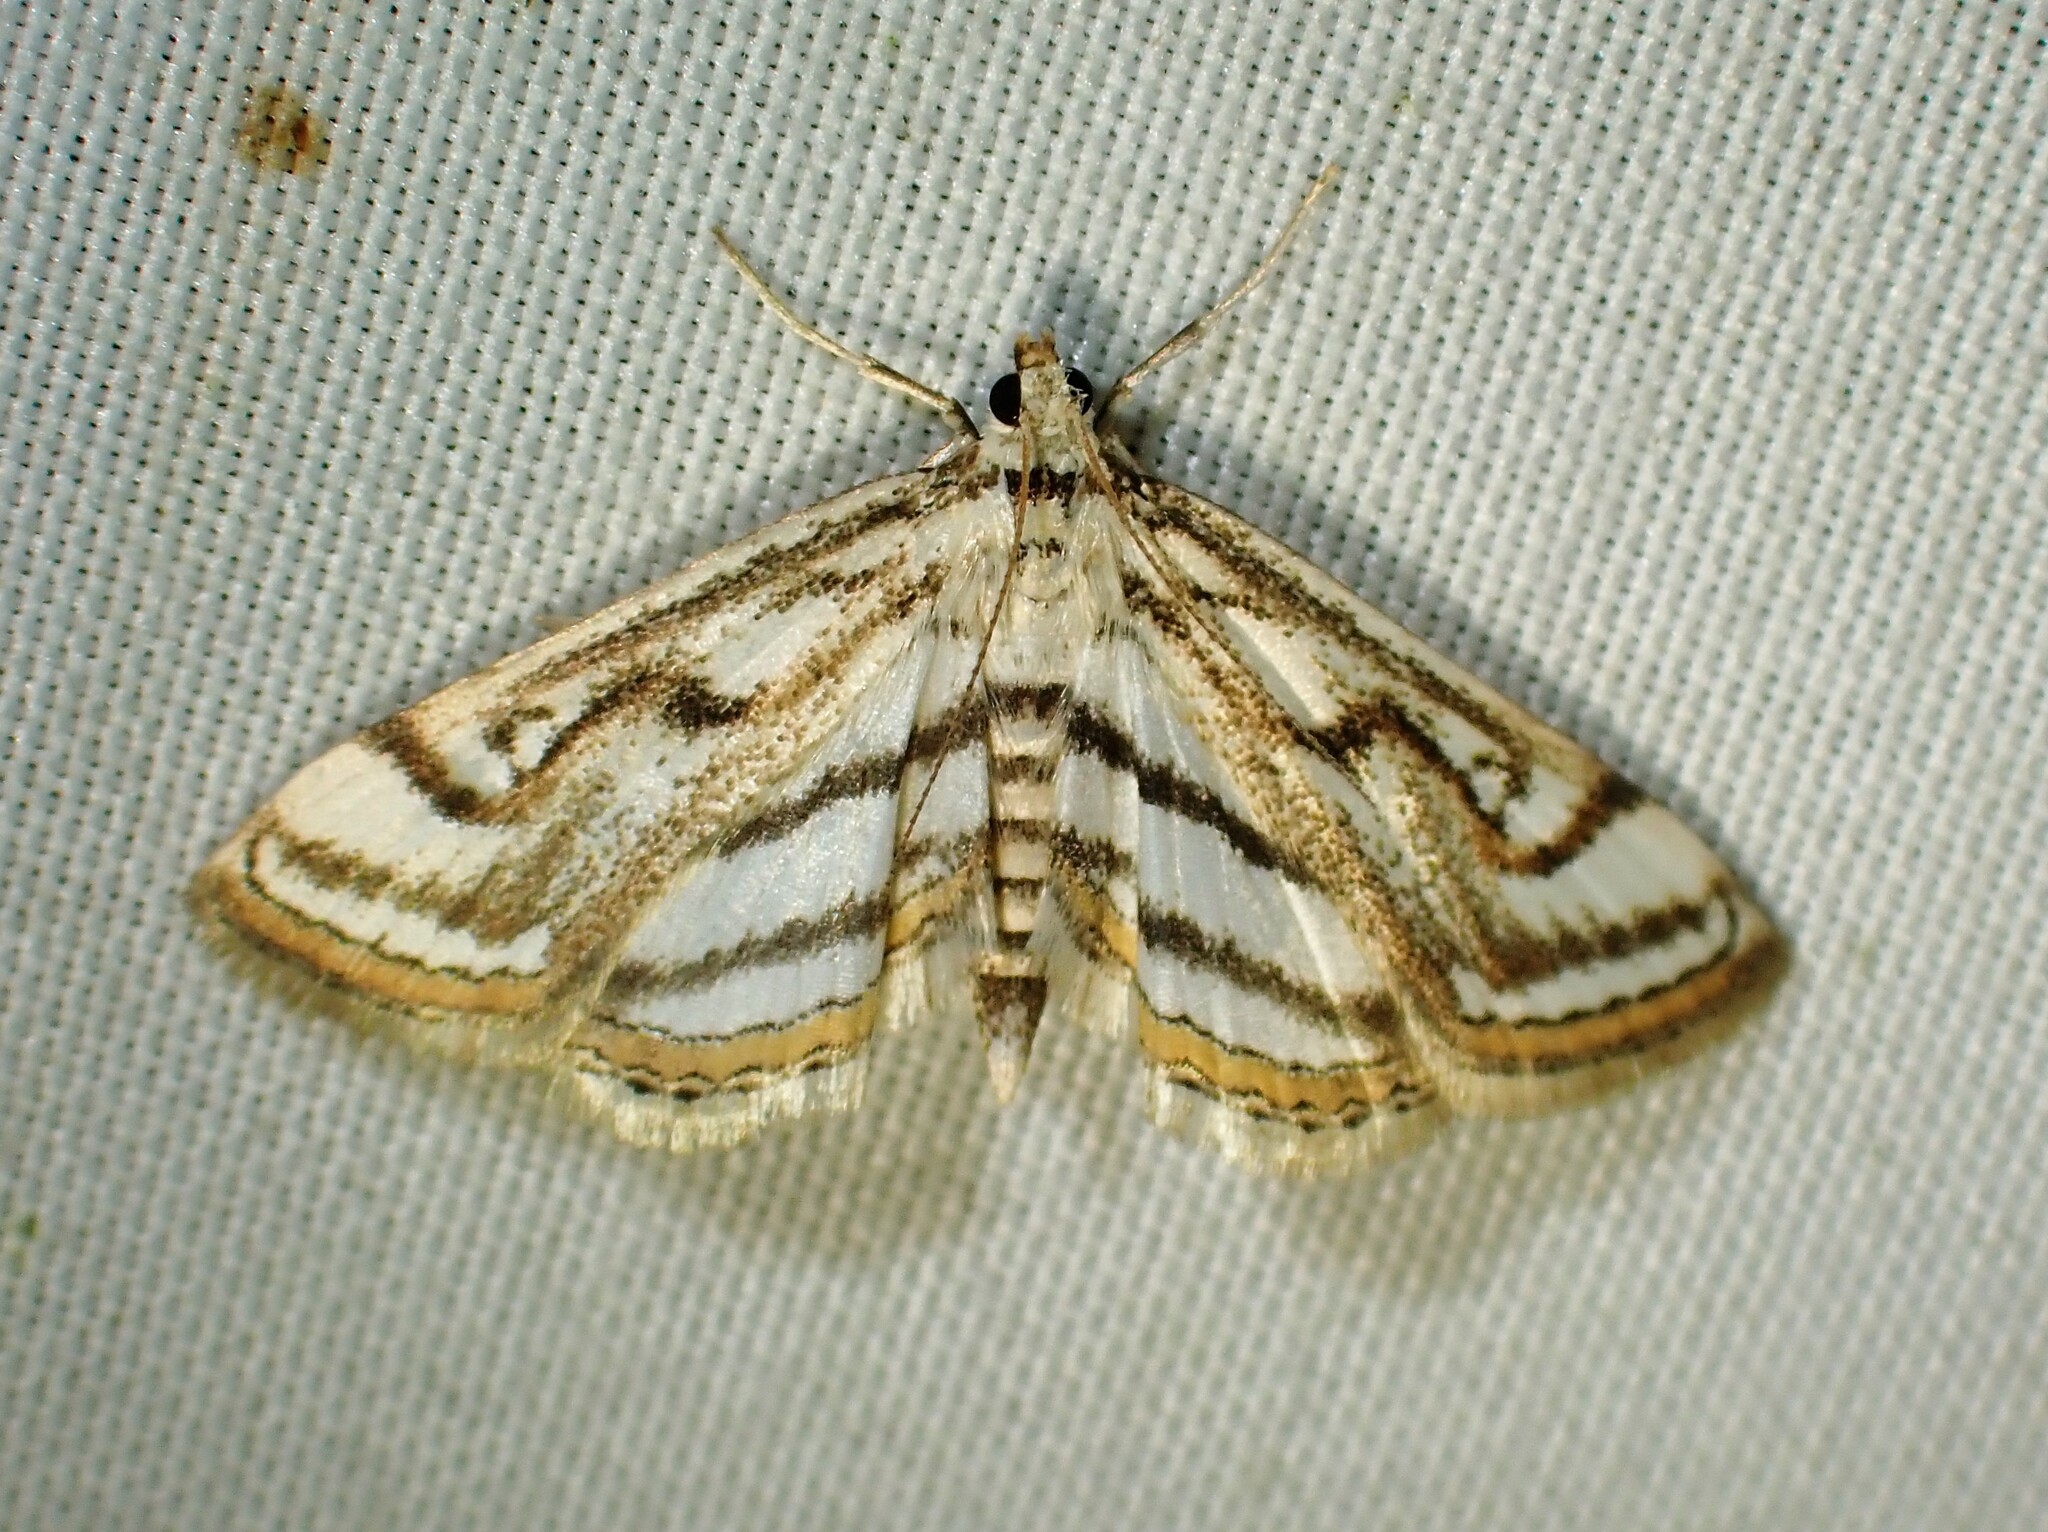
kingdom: Animalia
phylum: Arthropoda
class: Insecta
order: Lepidoptera
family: Crambidae
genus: Parapoynx
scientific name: Parapoynx badiusalis
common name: Chestnut-marked pondweed moth
